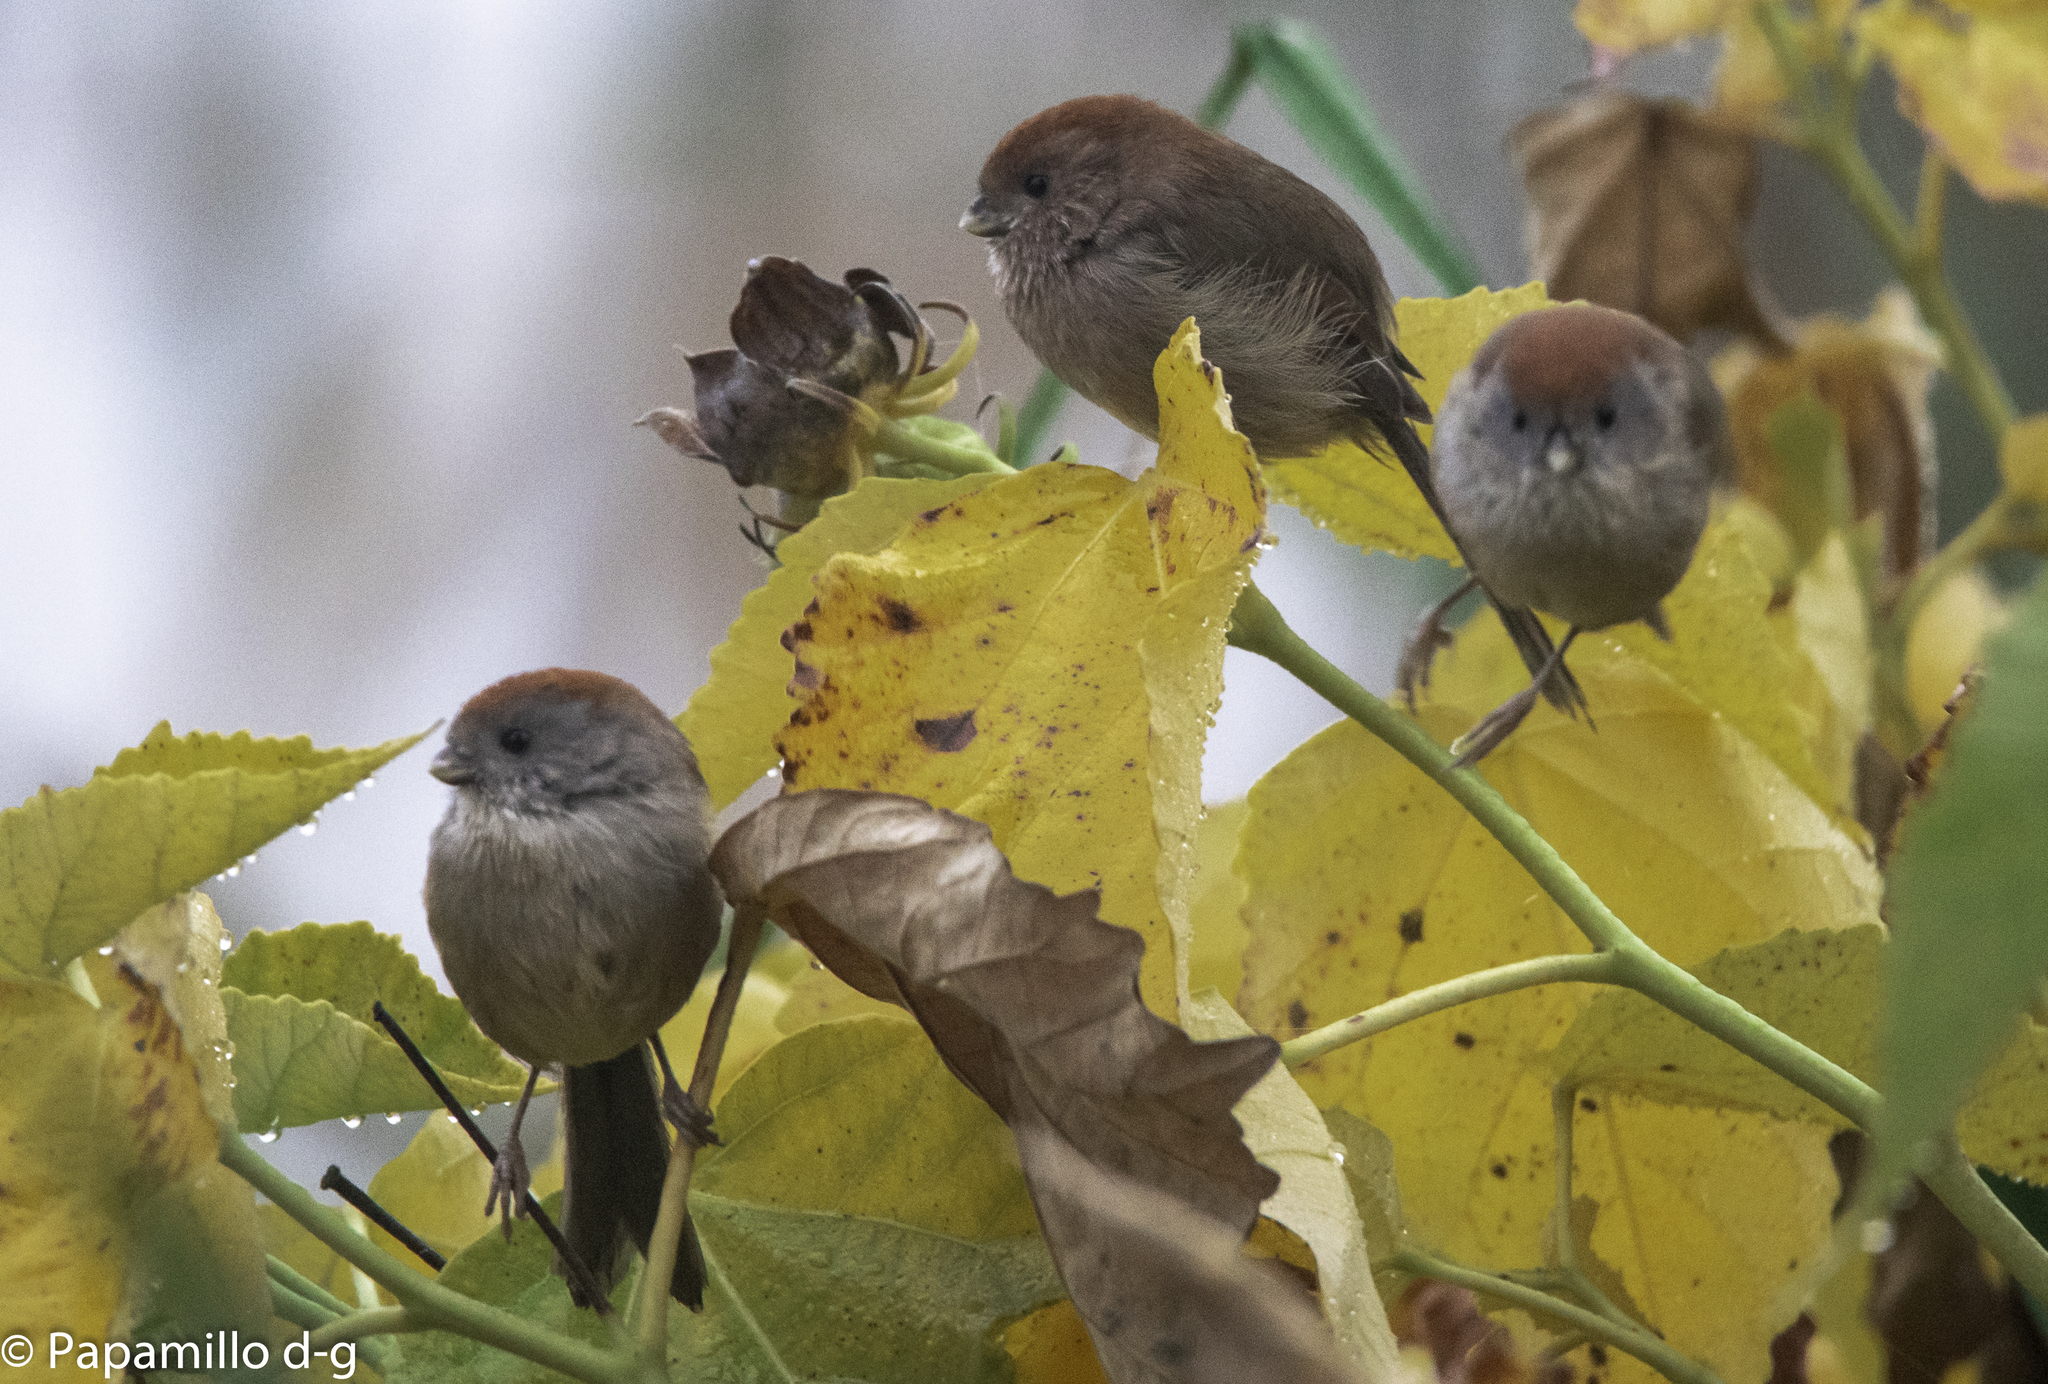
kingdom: Animalia
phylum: Chordata
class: Aves
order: Passeriformes
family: Sylviidae
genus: Sinosuthora
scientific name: Sinosuthora webbiana
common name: Vinous-throated parrotbill
